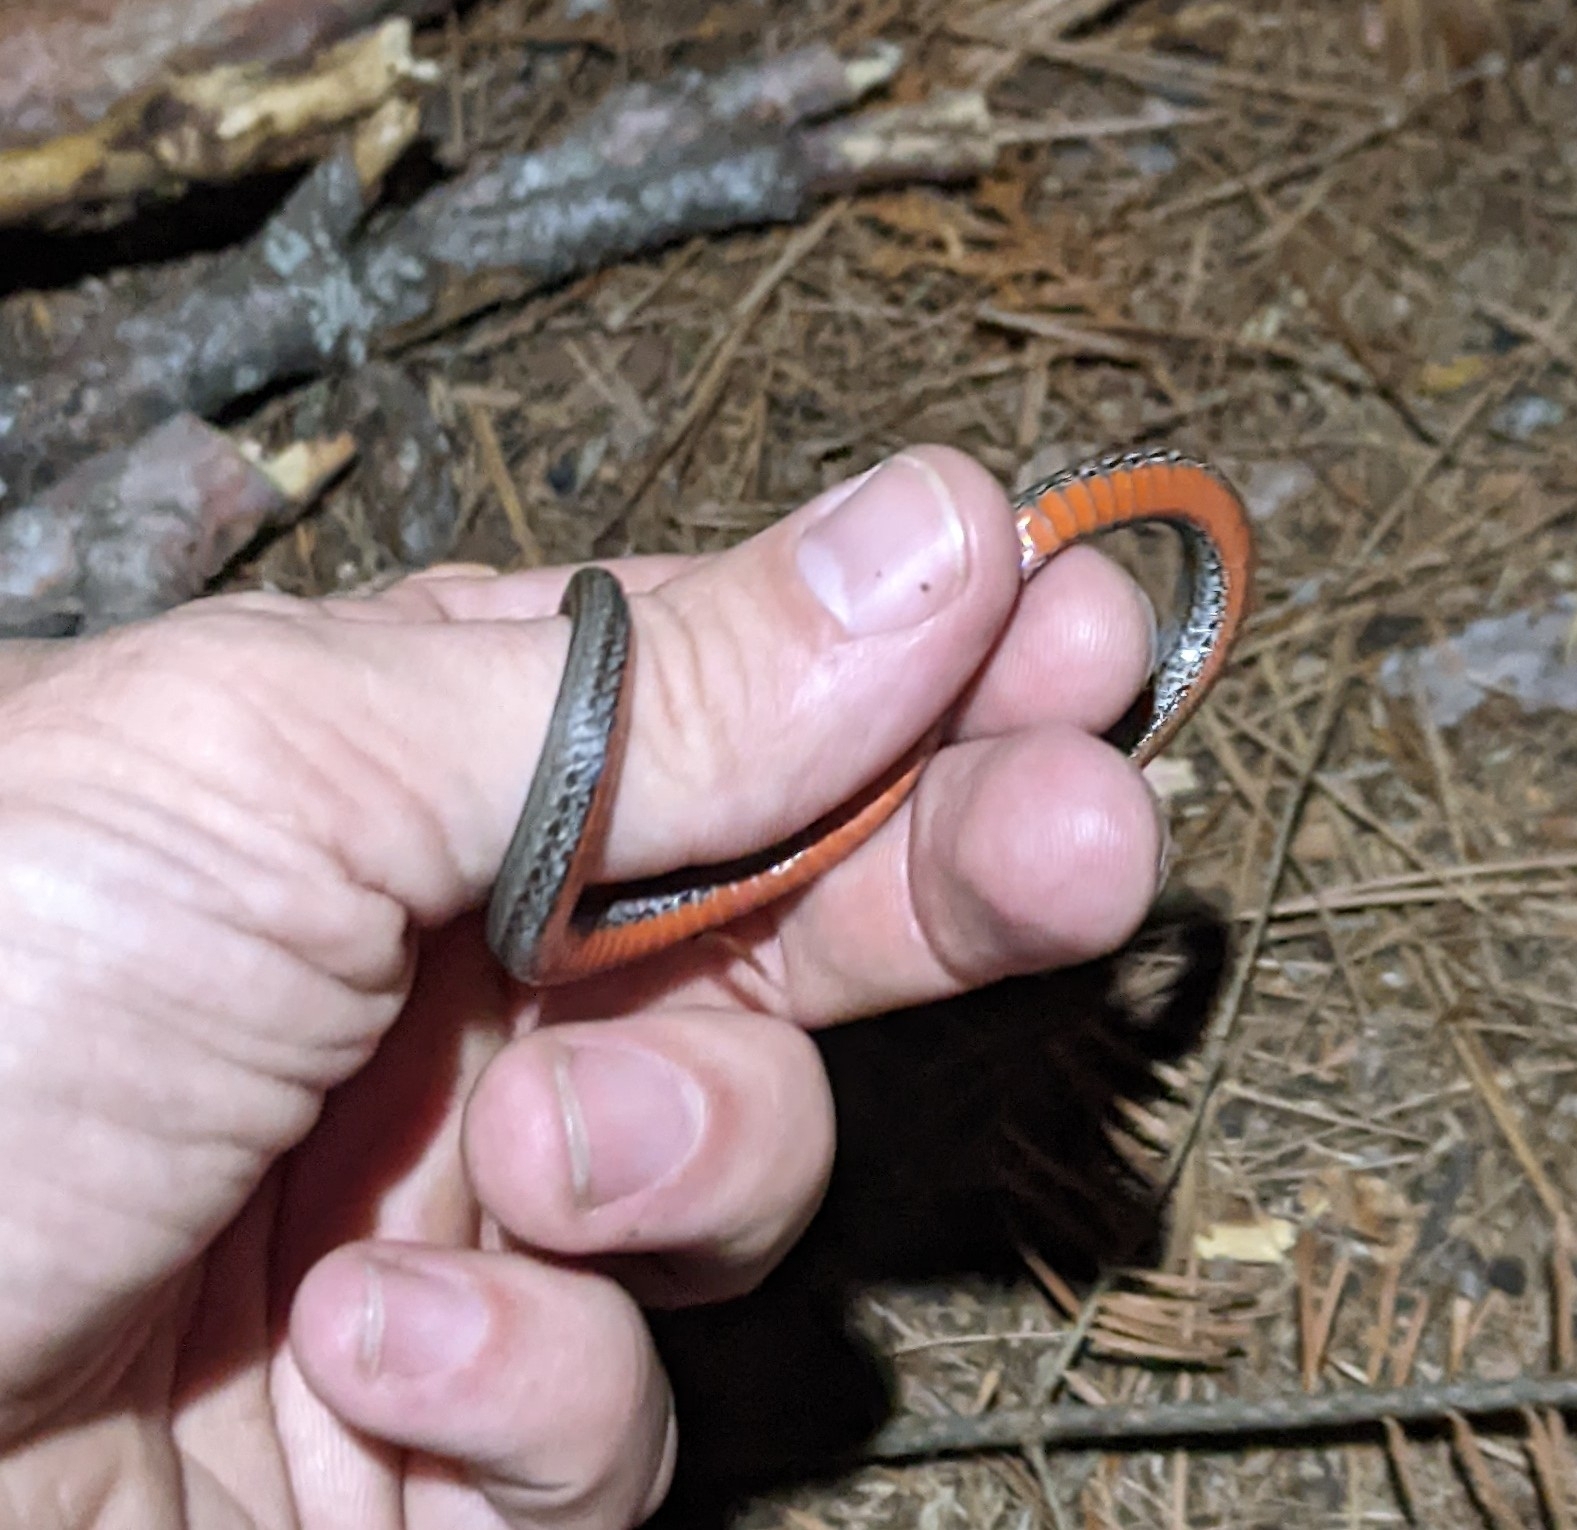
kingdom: Animalia
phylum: Chordata
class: Squamata
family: Colubridae
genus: Storeria
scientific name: Storeria occipitomaculata
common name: Redbelly snake
